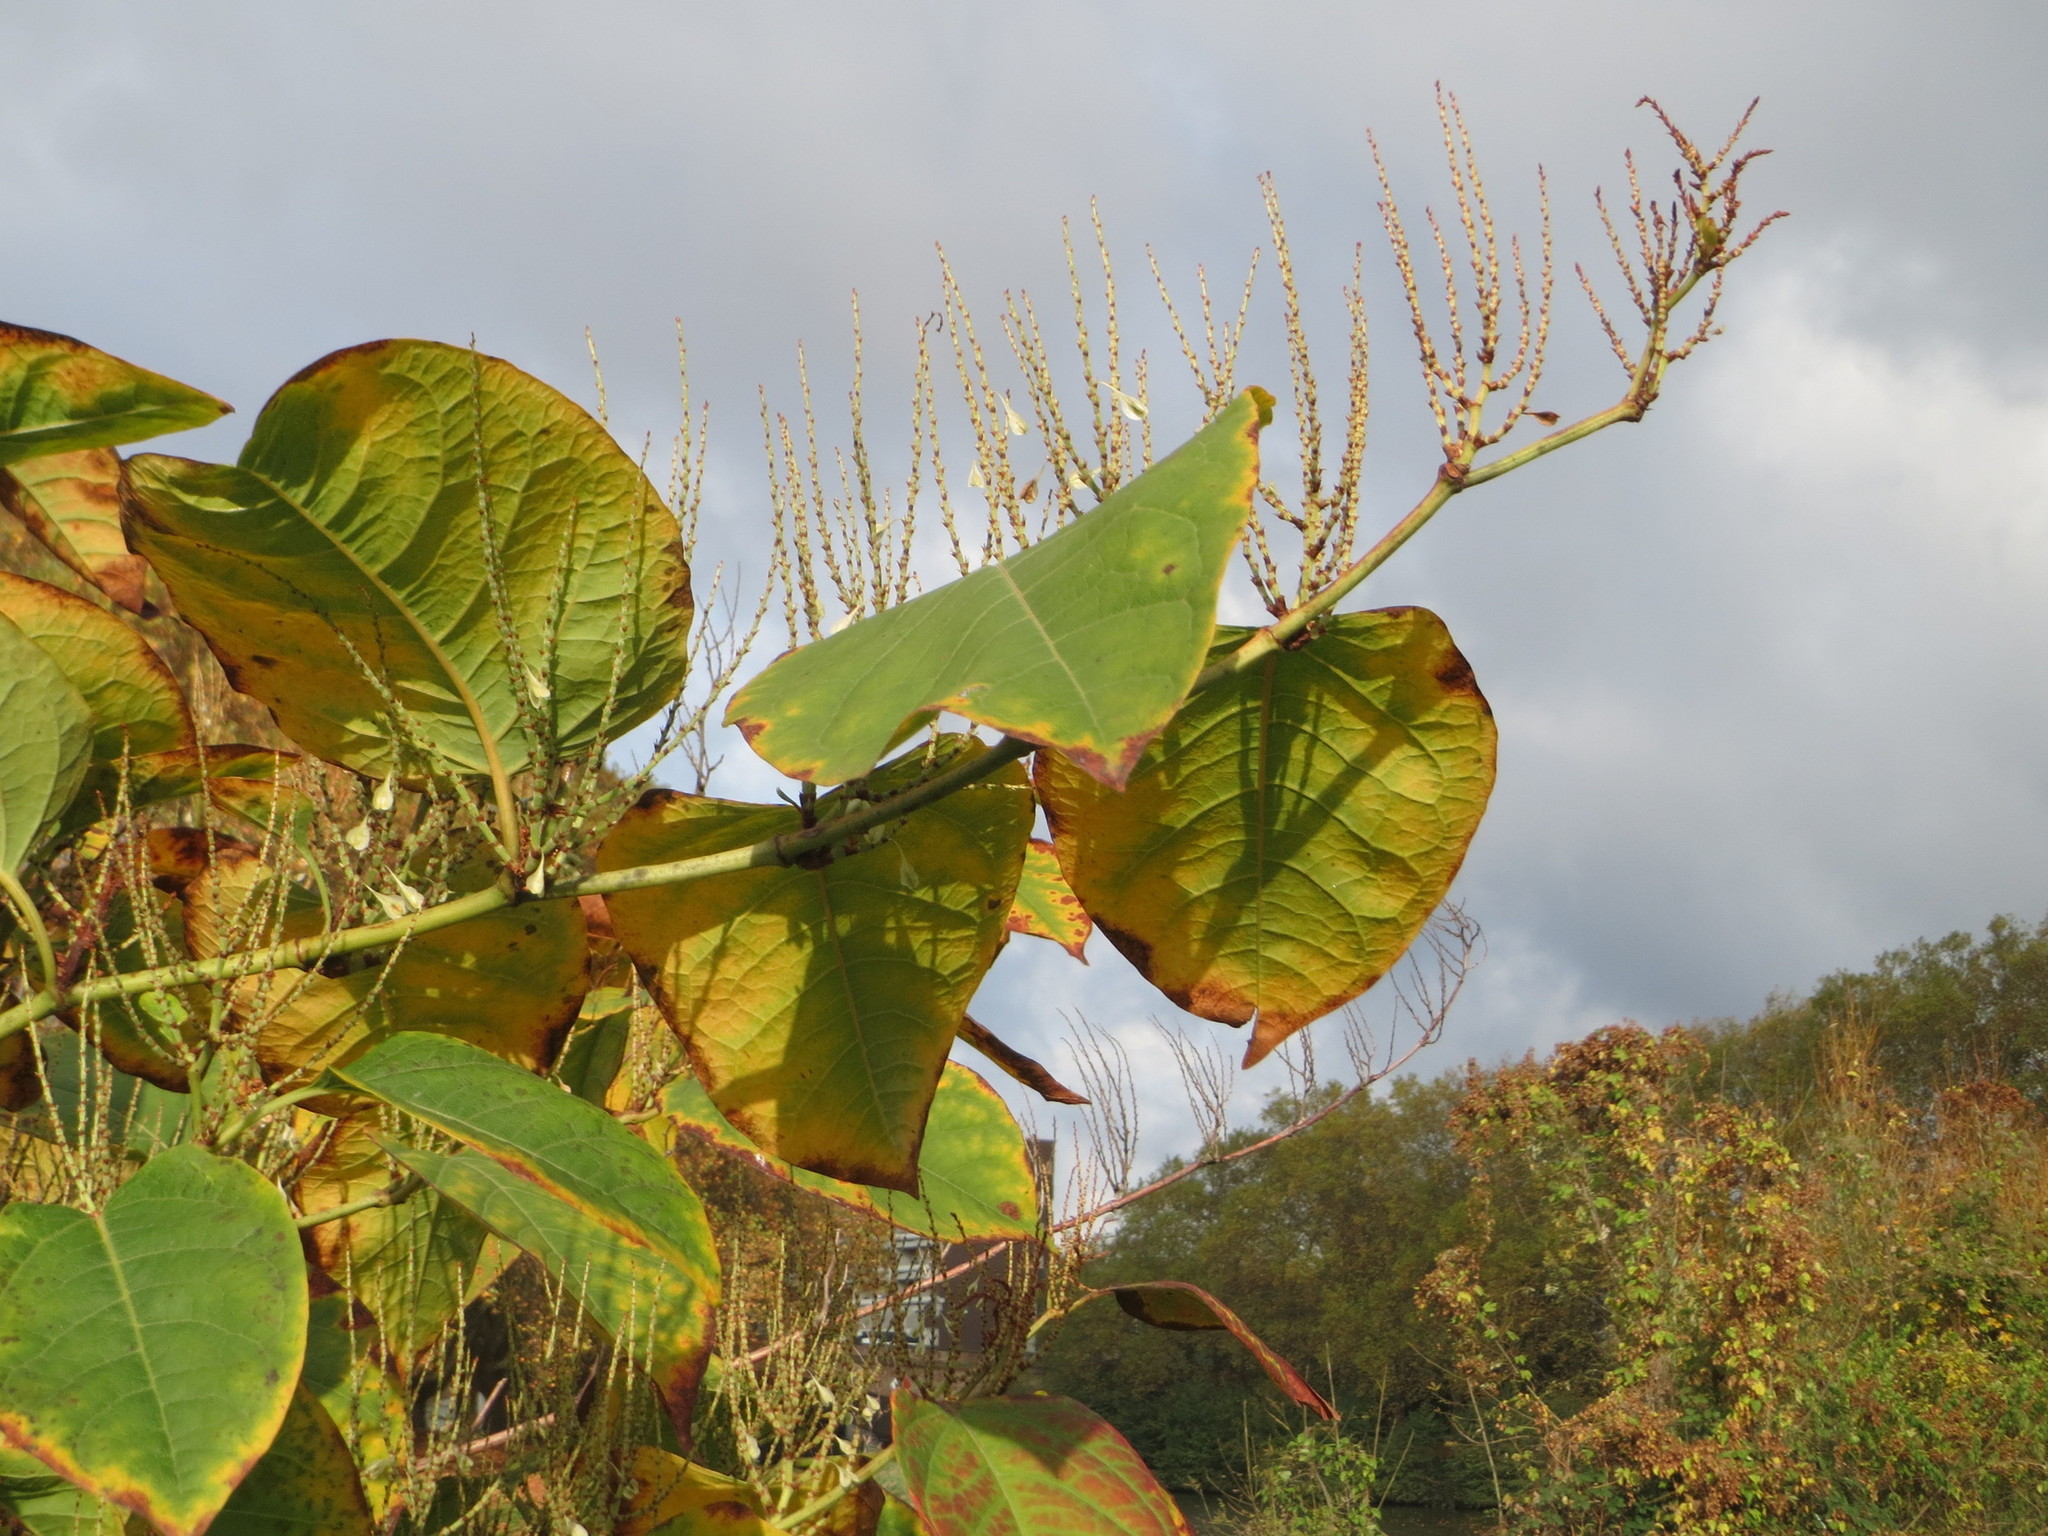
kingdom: Plantae
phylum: Tracheophyta
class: Magnoliopsida
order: Caryophyllales
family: Polygonaceae
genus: Reynoutria
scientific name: Reynoutria japonica
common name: Japanese knotweed
